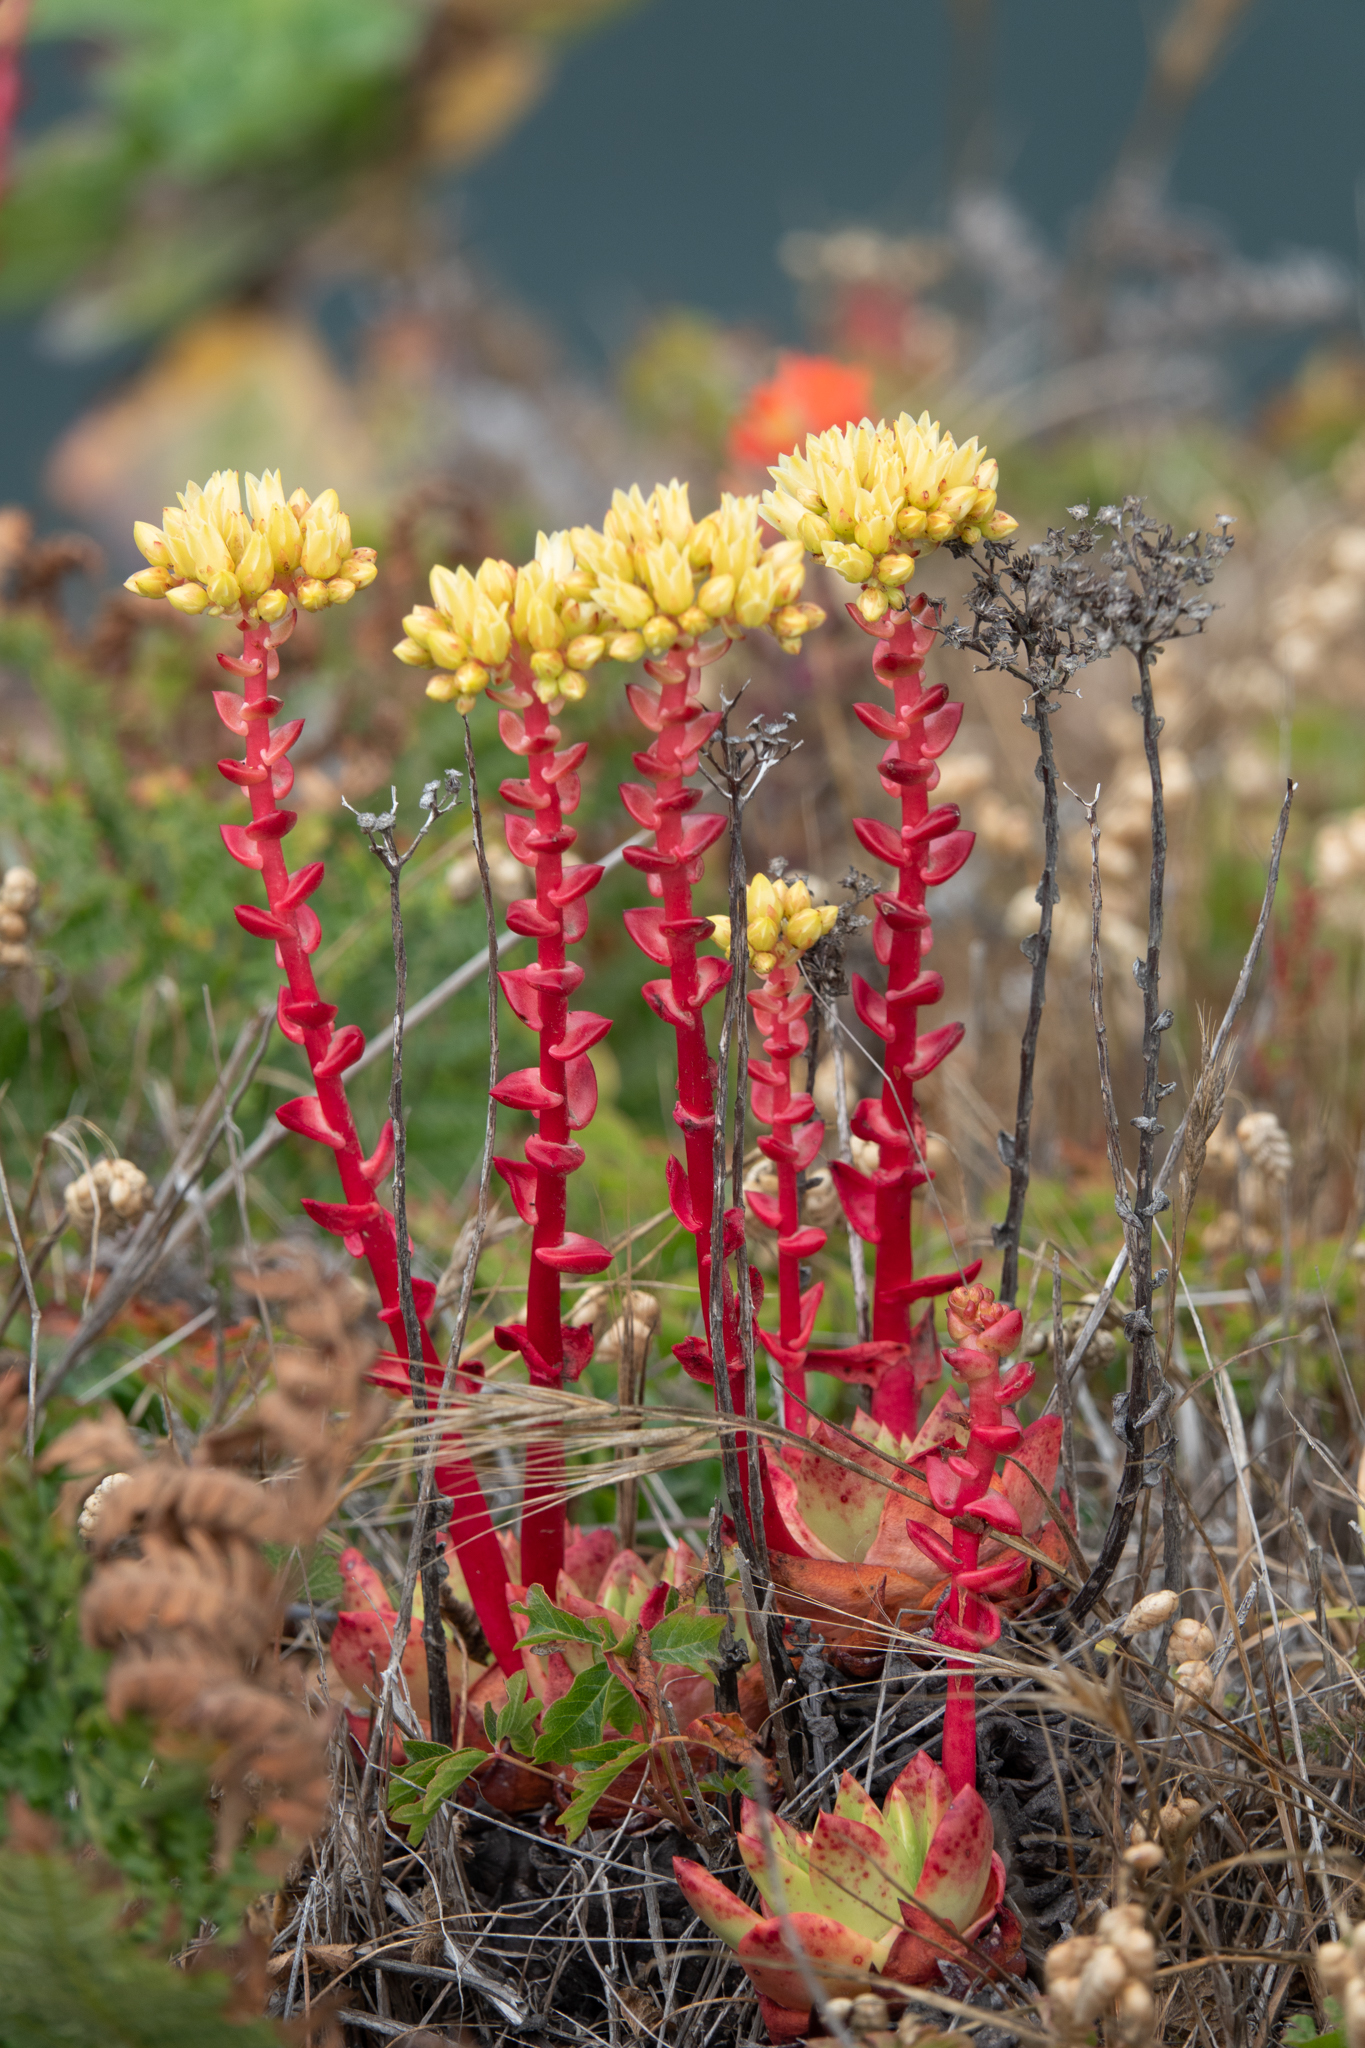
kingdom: Plantae
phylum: Tracheophyta
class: Magnoliopsida
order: Saxifragales
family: Crassulaceae
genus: Dudleya
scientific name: Dudleya farinosa
